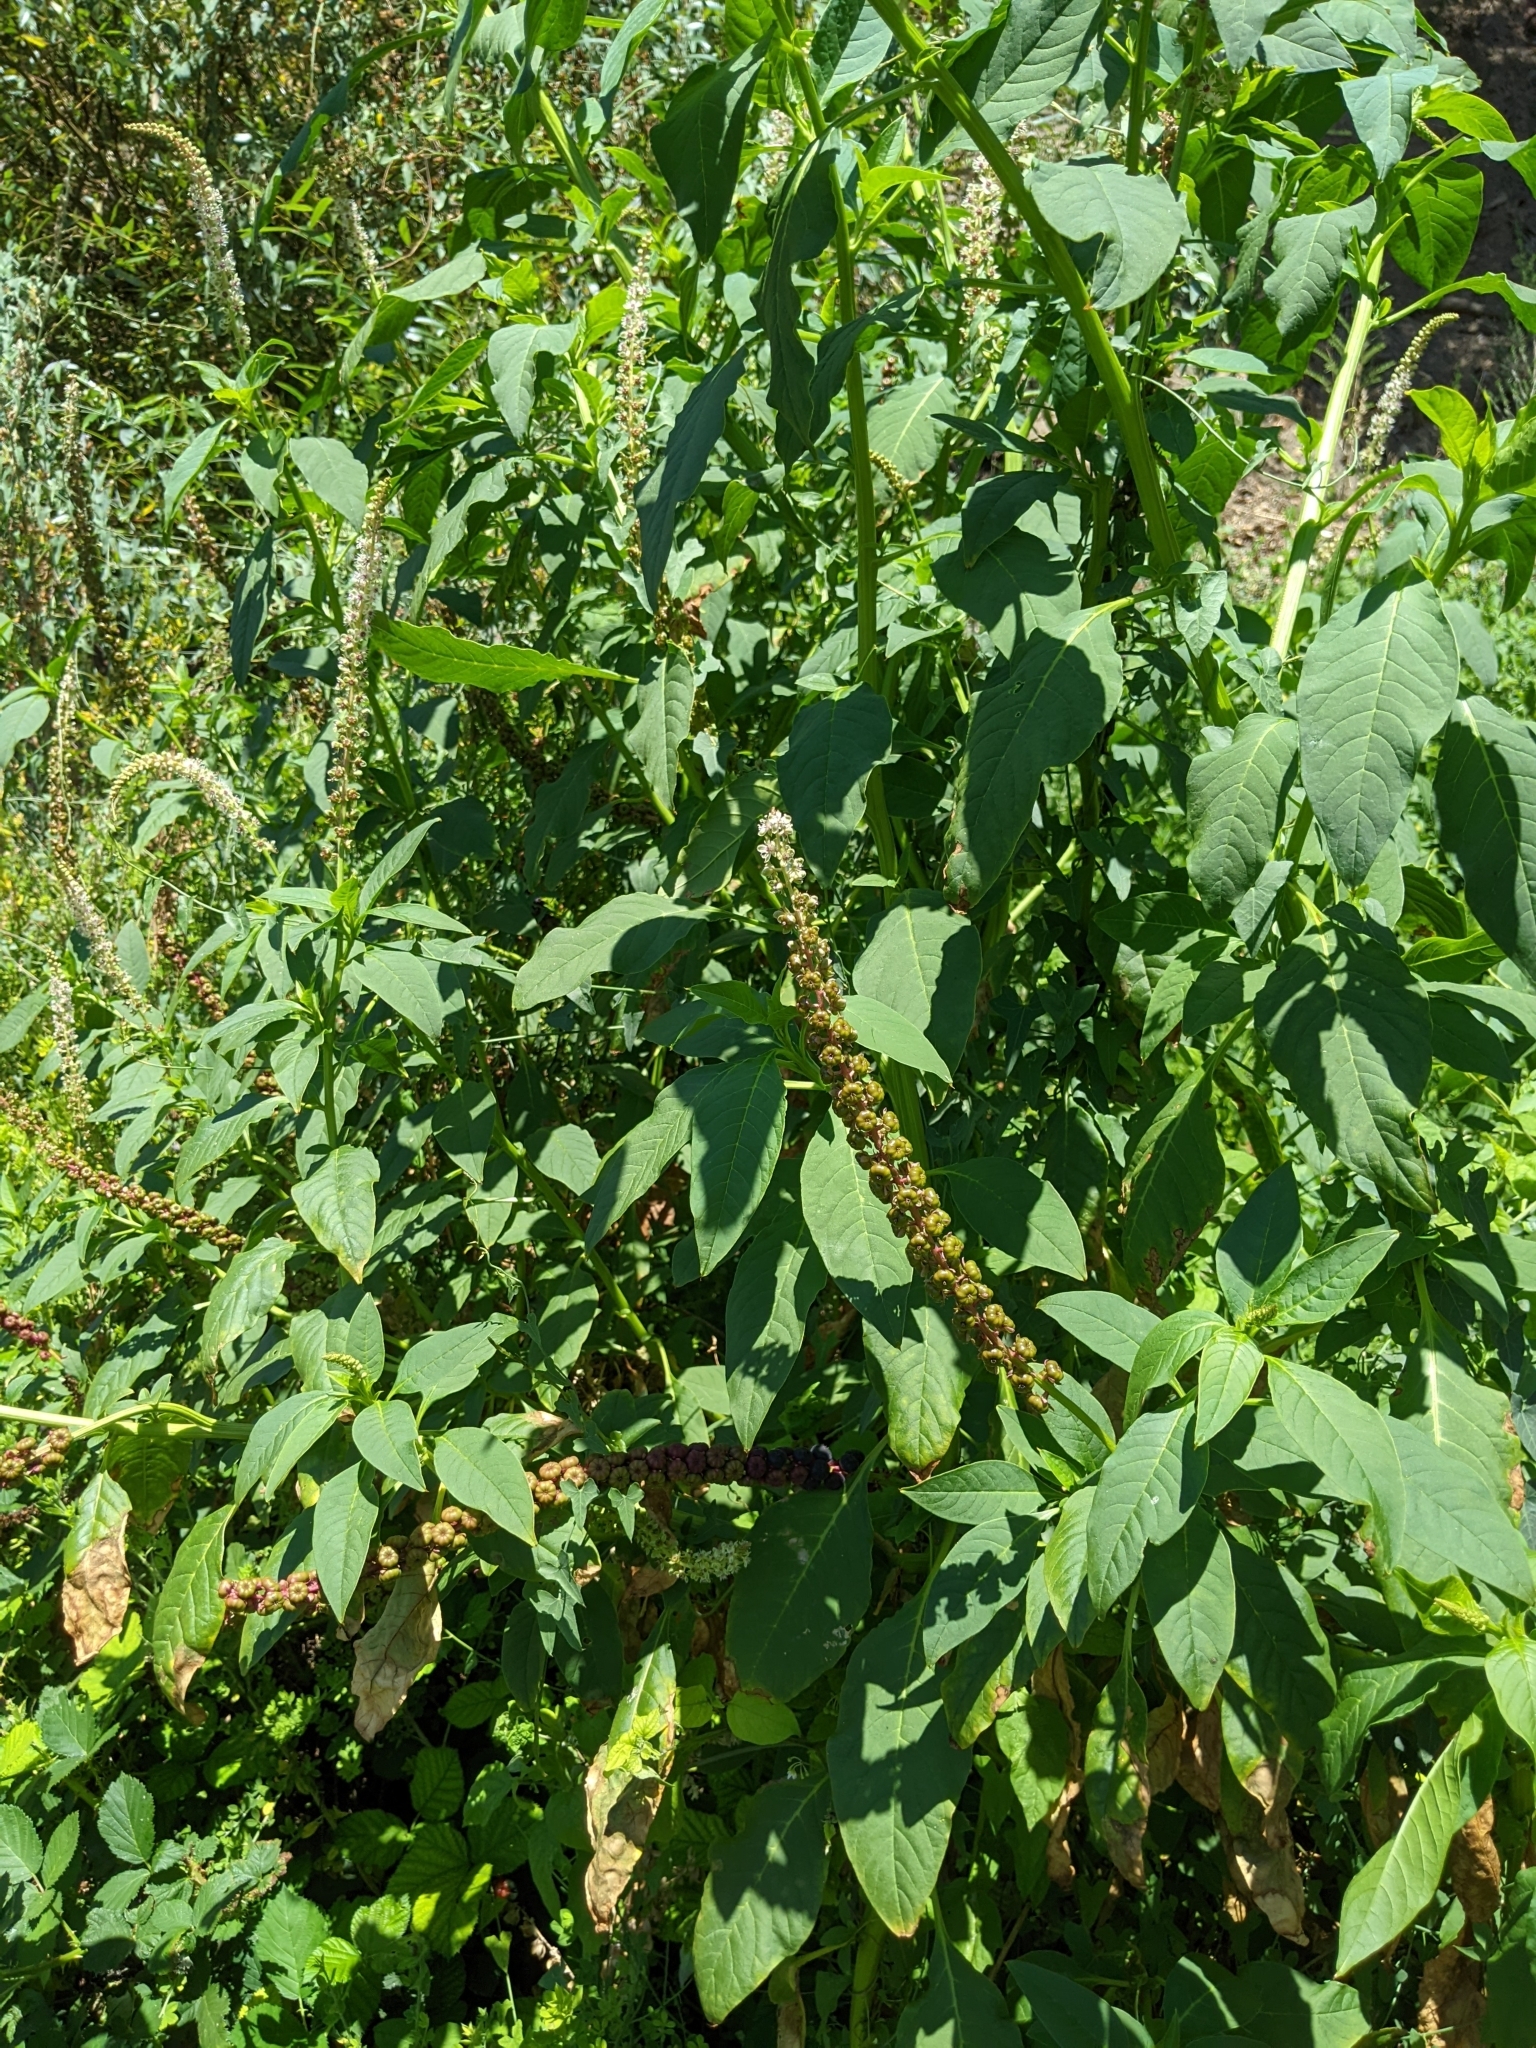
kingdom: Plantae
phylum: Tracheophyta
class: Magnoliopsida
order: Caryophyllales
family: Phytolaccaceae
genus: Phytolacca
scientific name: Phytolacca heterotepala
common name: Mexican pokeweed
